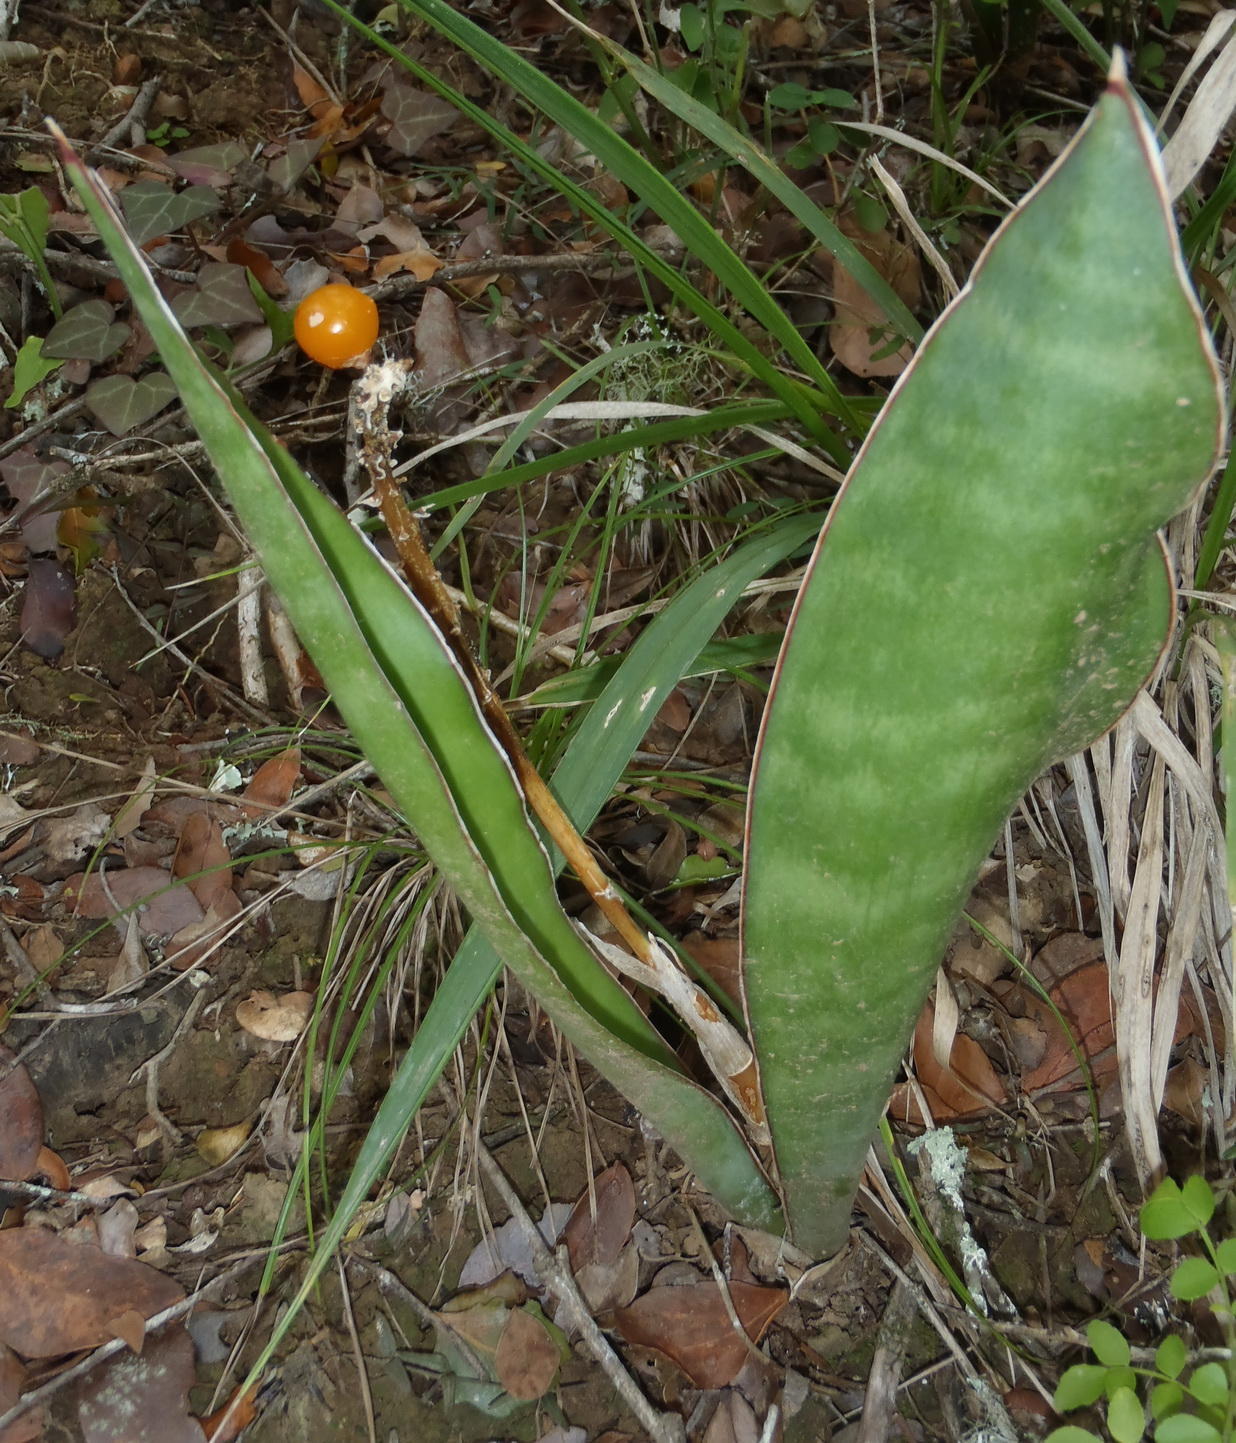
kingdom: Plantae
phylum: Tracheophyta
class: Liliopsida
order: Asparagales
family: Asparagaceae
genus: Dracaena
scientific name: Dracaena hyacinthoides
